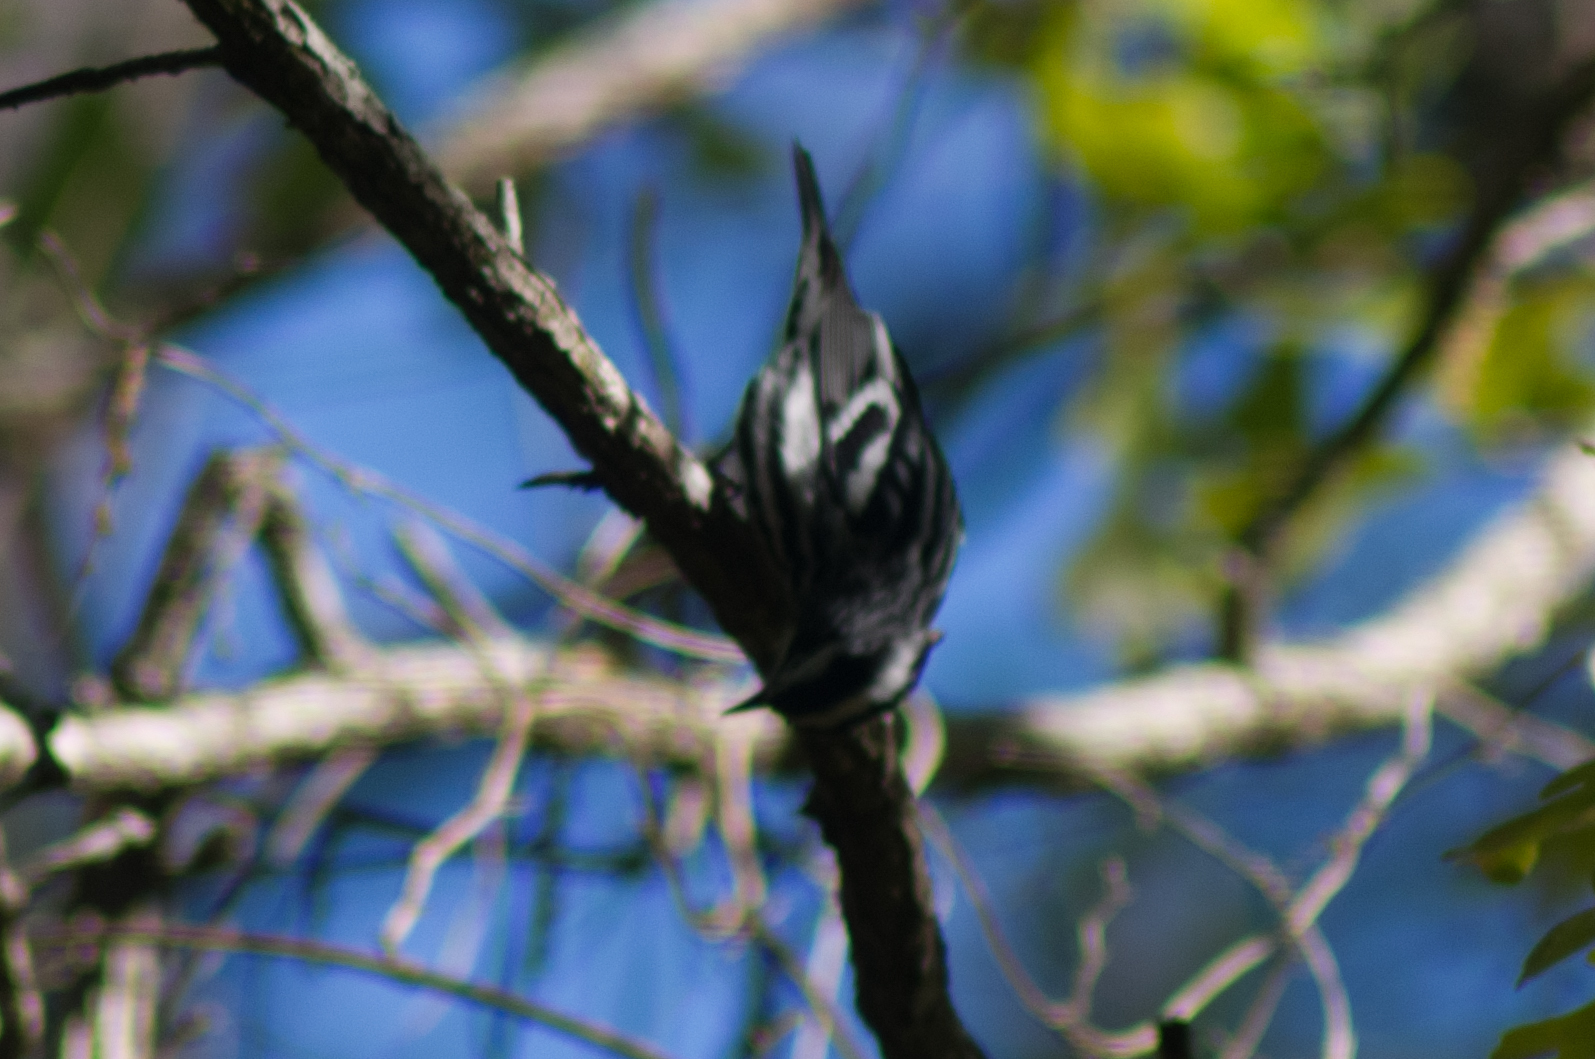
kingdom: Animalia
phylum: Chordata
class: Aves
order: Passeriformes
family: Parulidae
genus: Mniotilta
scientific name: Mniotilta varia
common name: Black-and-white warbler
